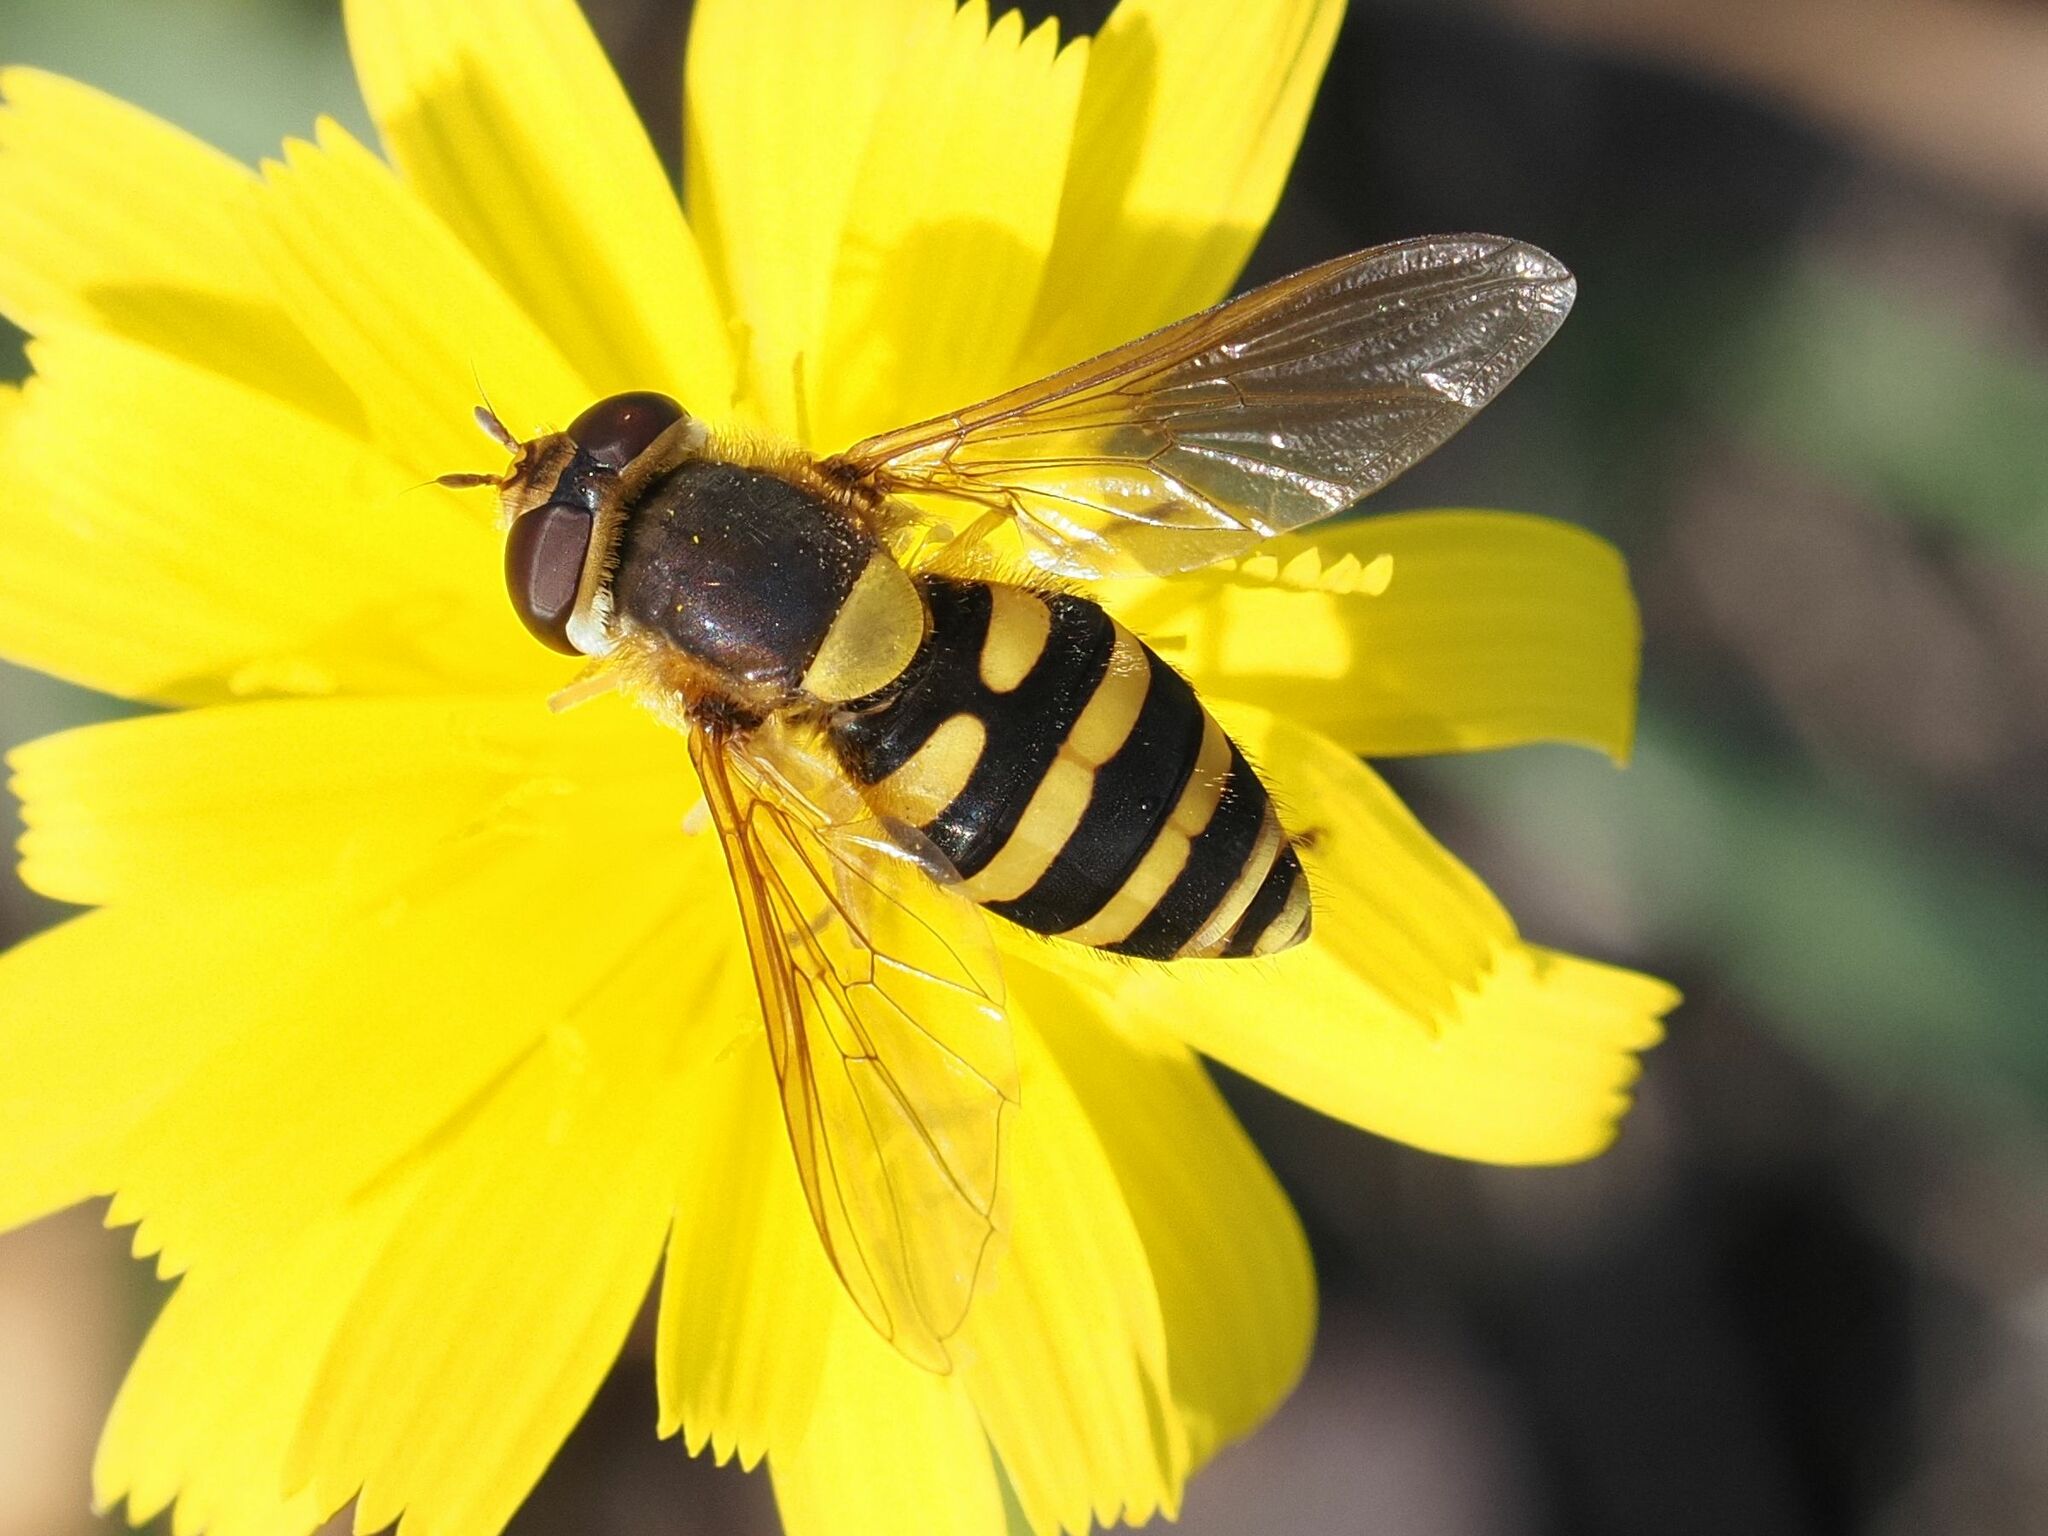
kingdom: Animalia
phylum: Arthropoda
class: Insecta
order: Diptera
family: Syrphidae
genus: Syrphus
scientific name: Syrphus
